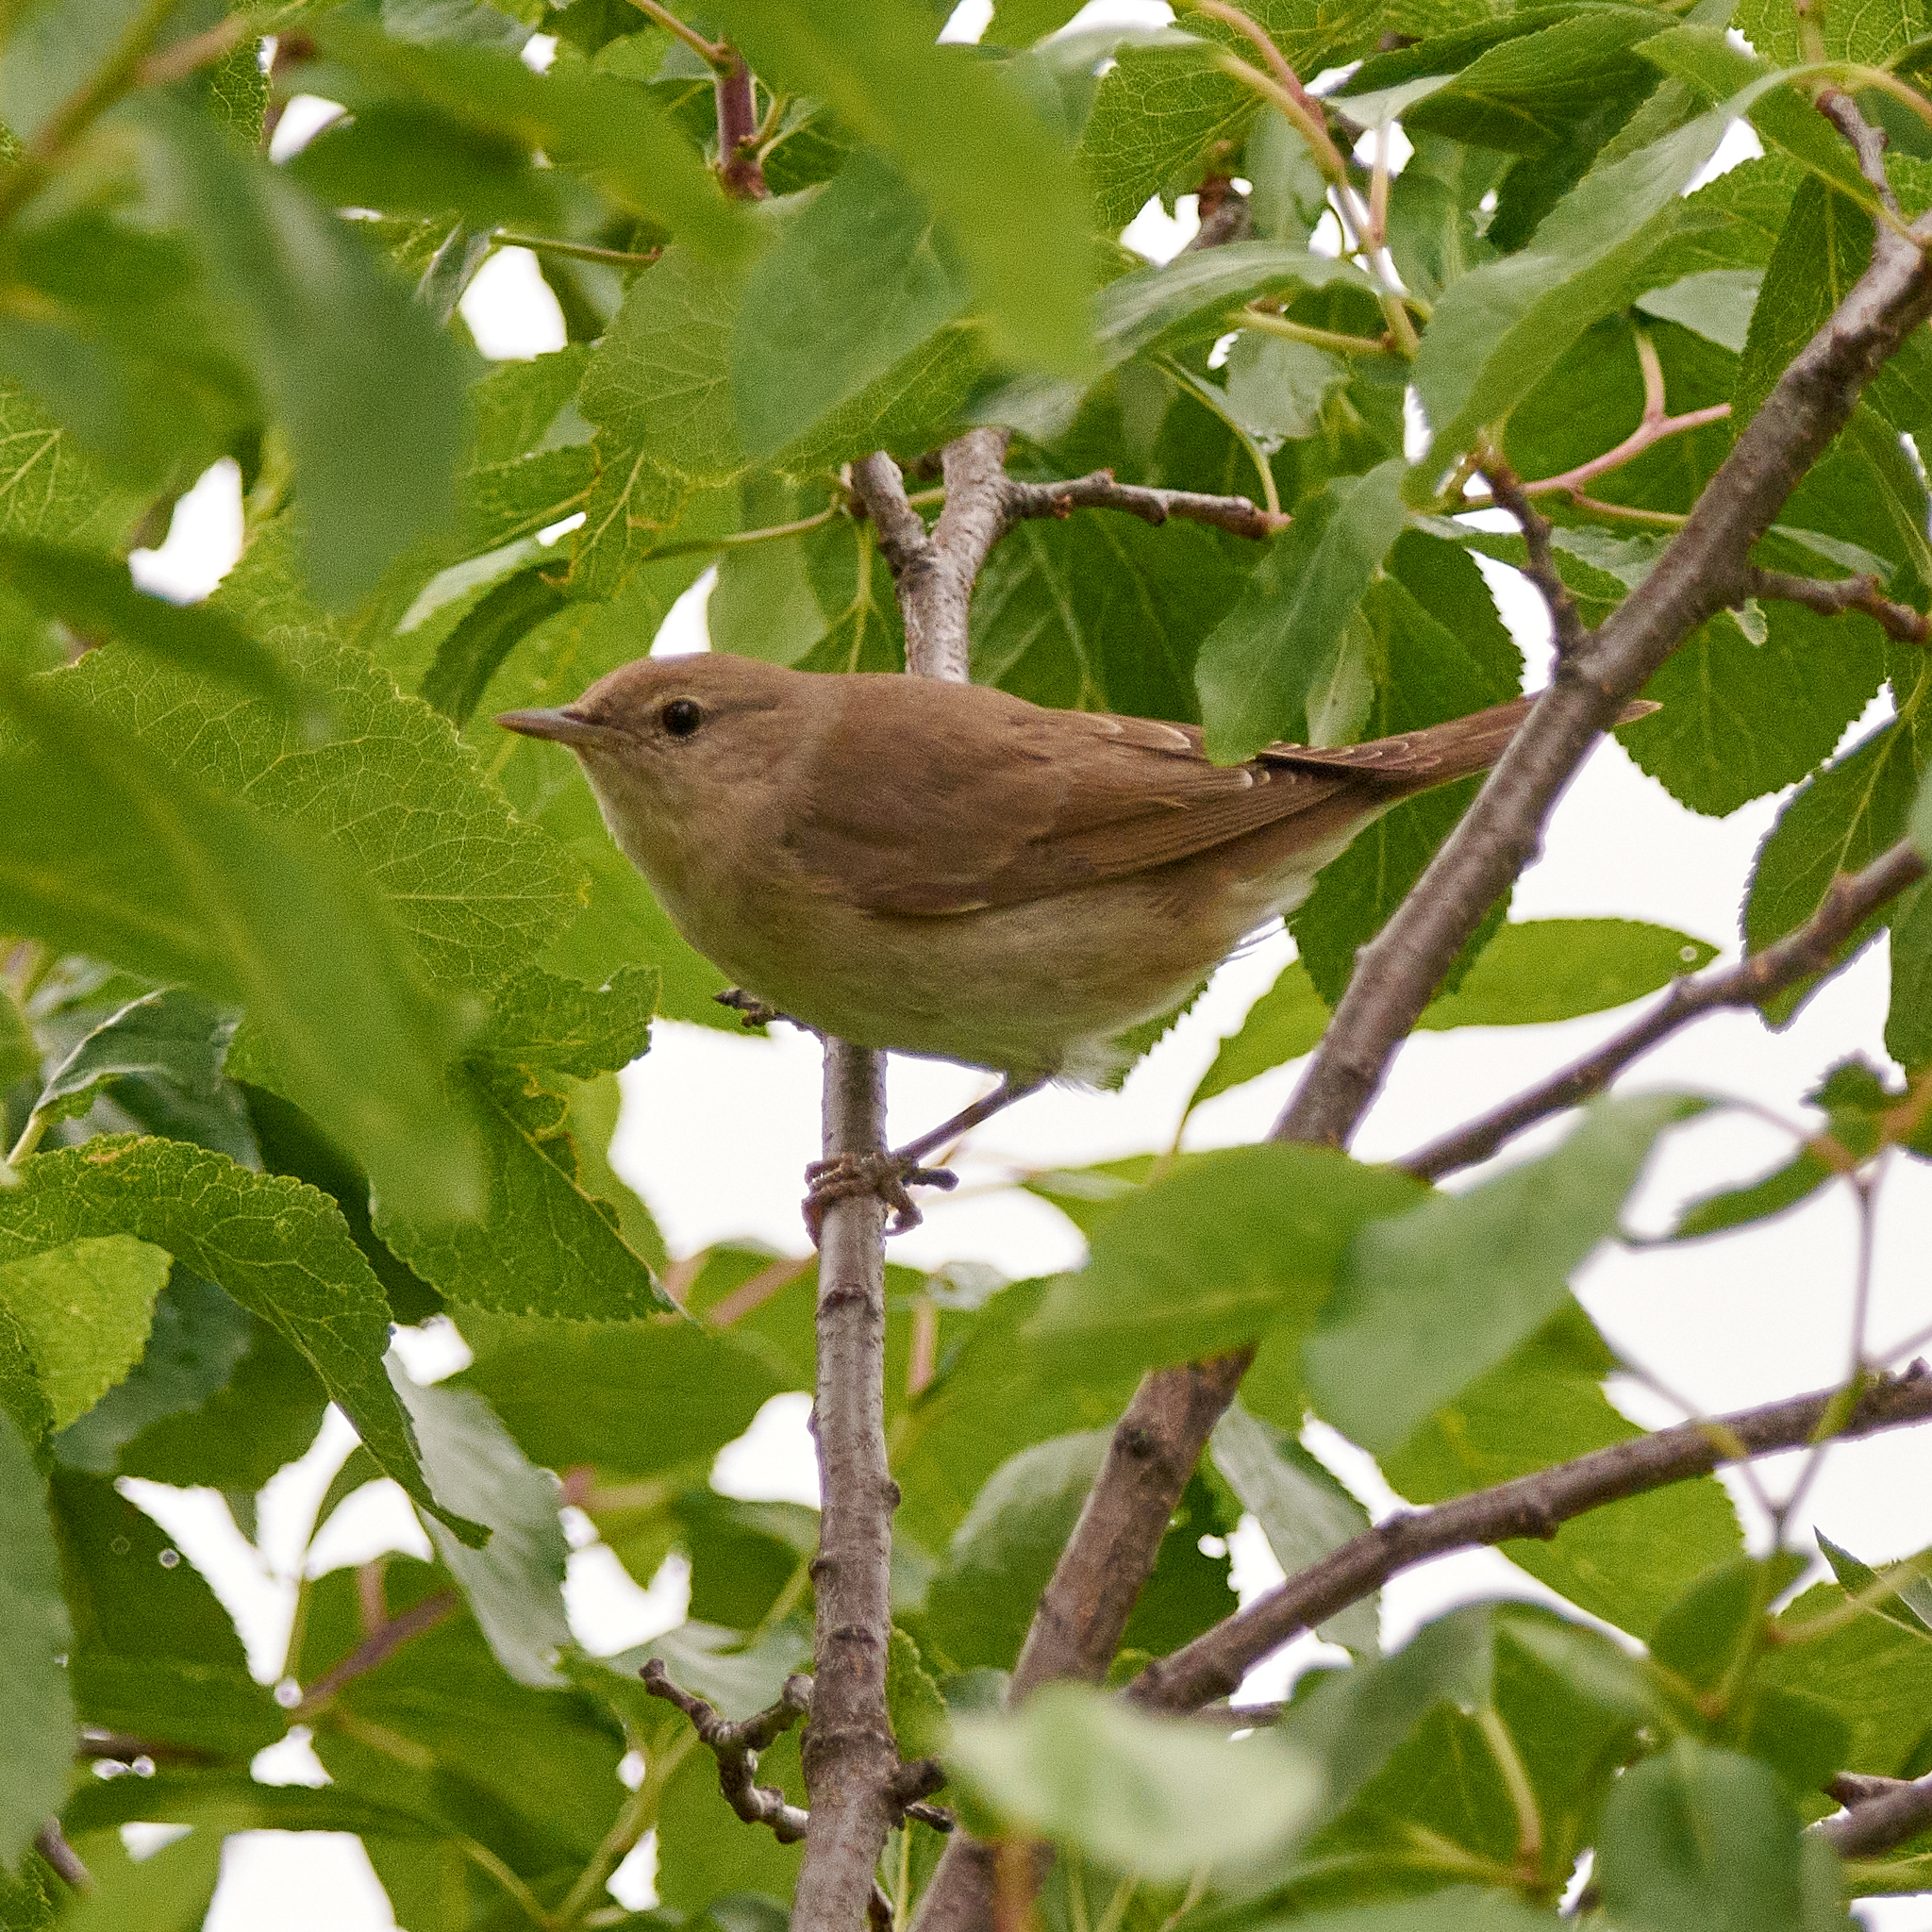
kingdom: Animalia
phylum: Chordata
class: Aves
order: Passeriformes
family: Sylviidae
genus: Sylvia
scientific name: Sylvia borin
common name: Garden warbler
